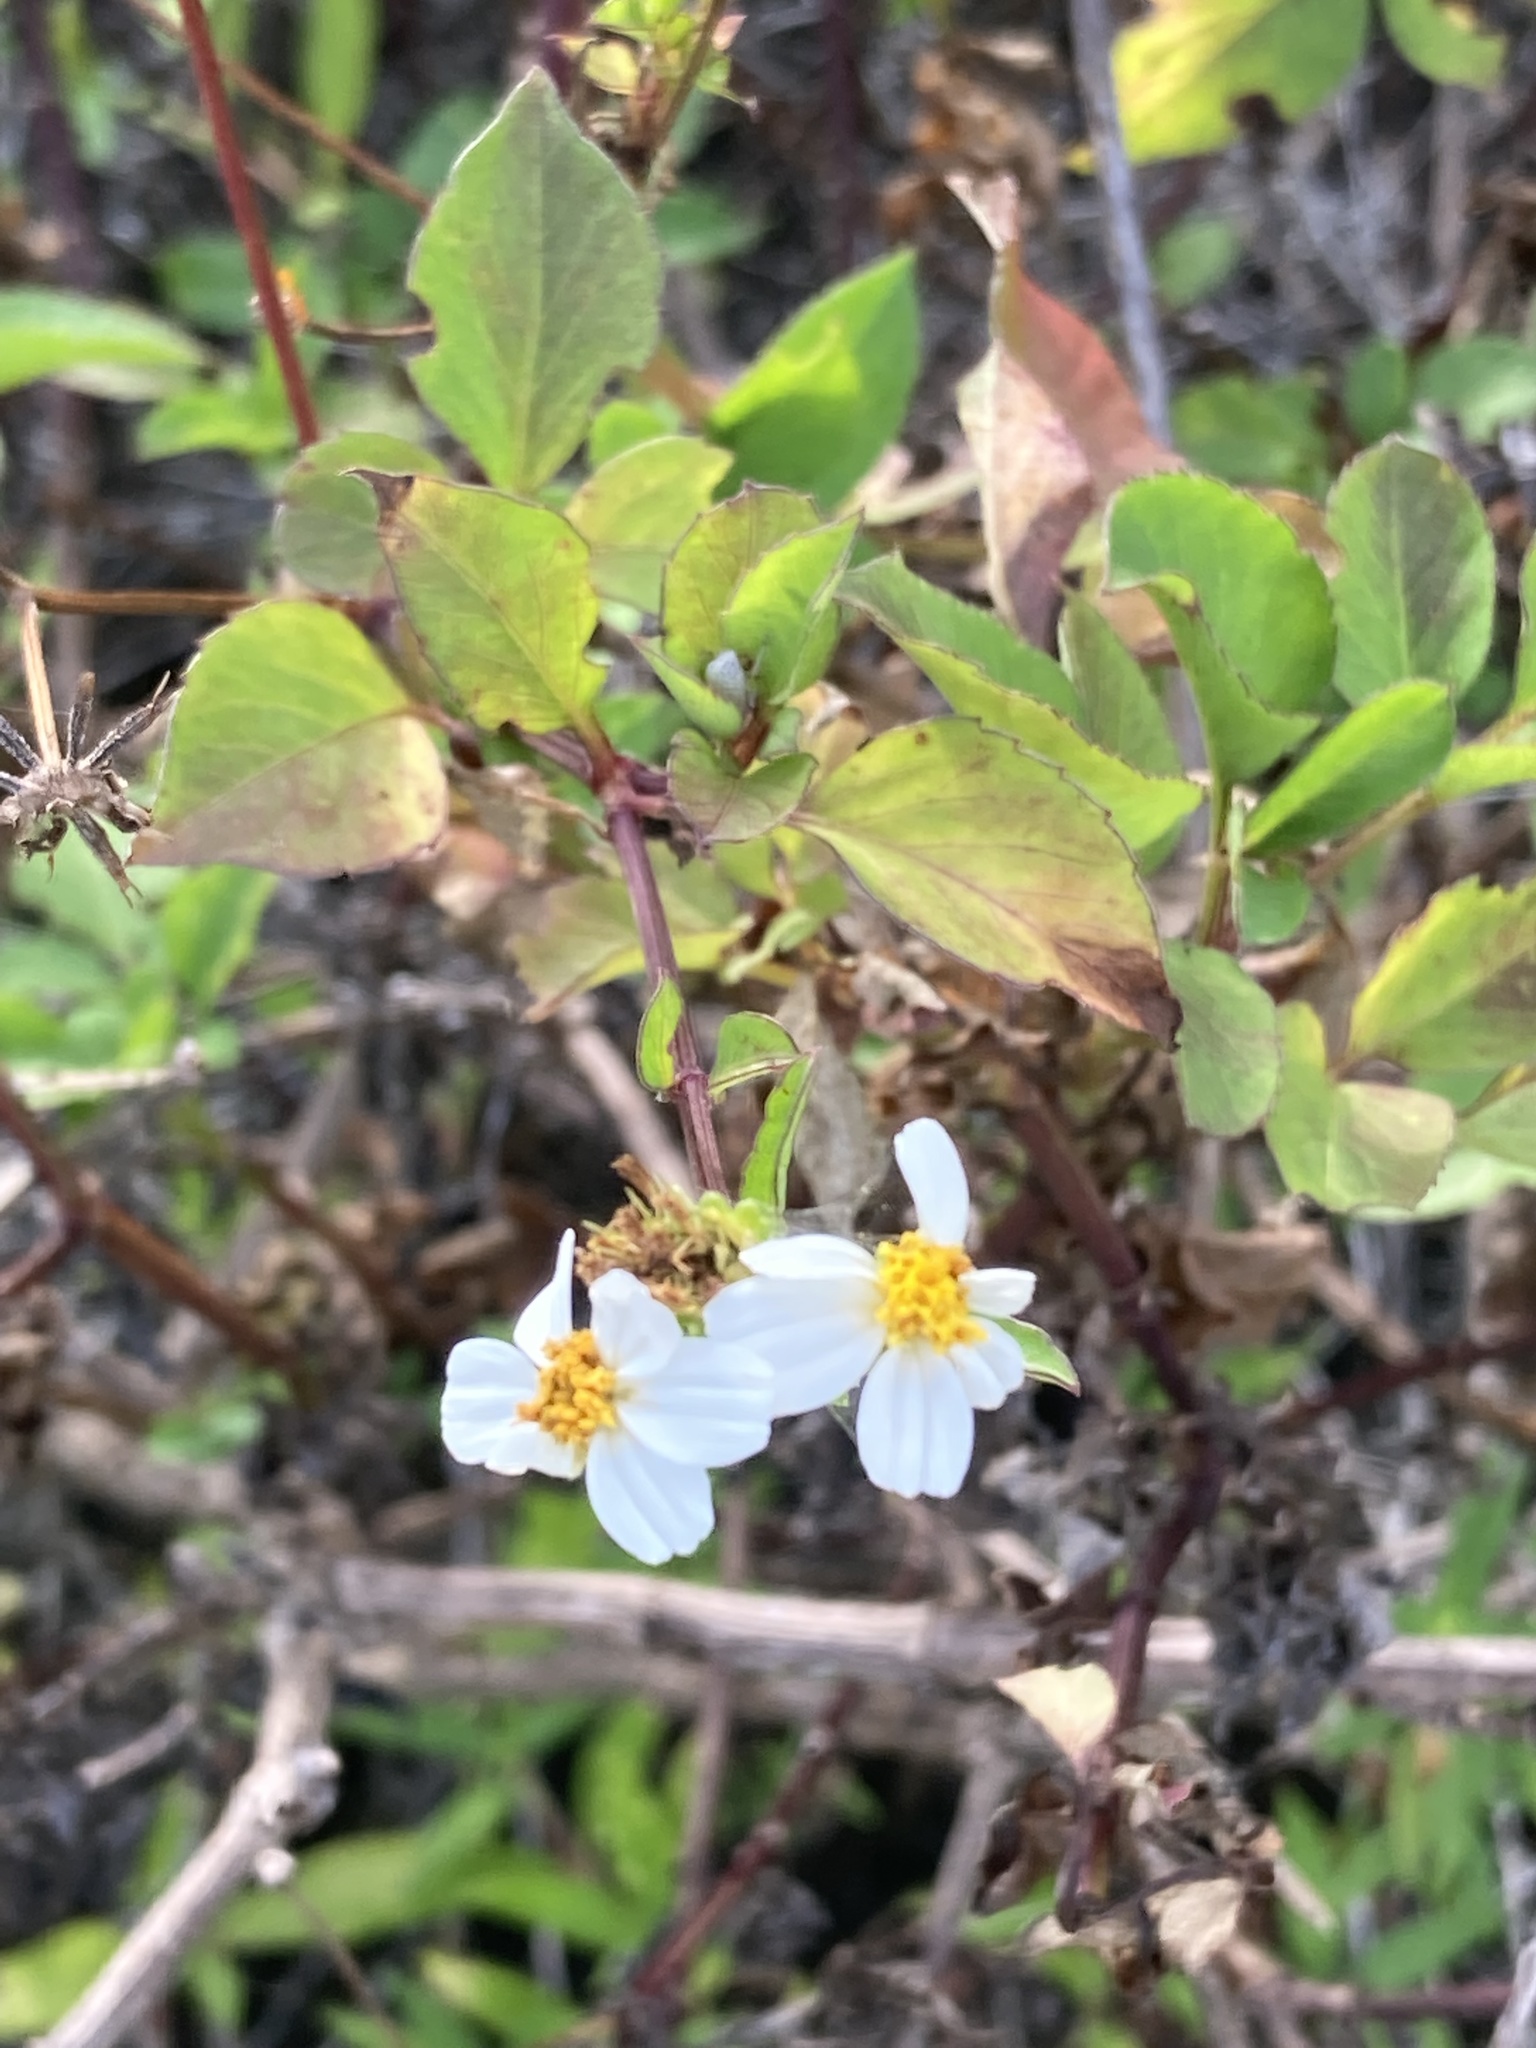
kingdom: Plantae
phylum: Tracheophyta
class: Magnoliopsida
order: Asterales
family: Asteraceae
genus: Bidens
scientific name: Bidens alba
